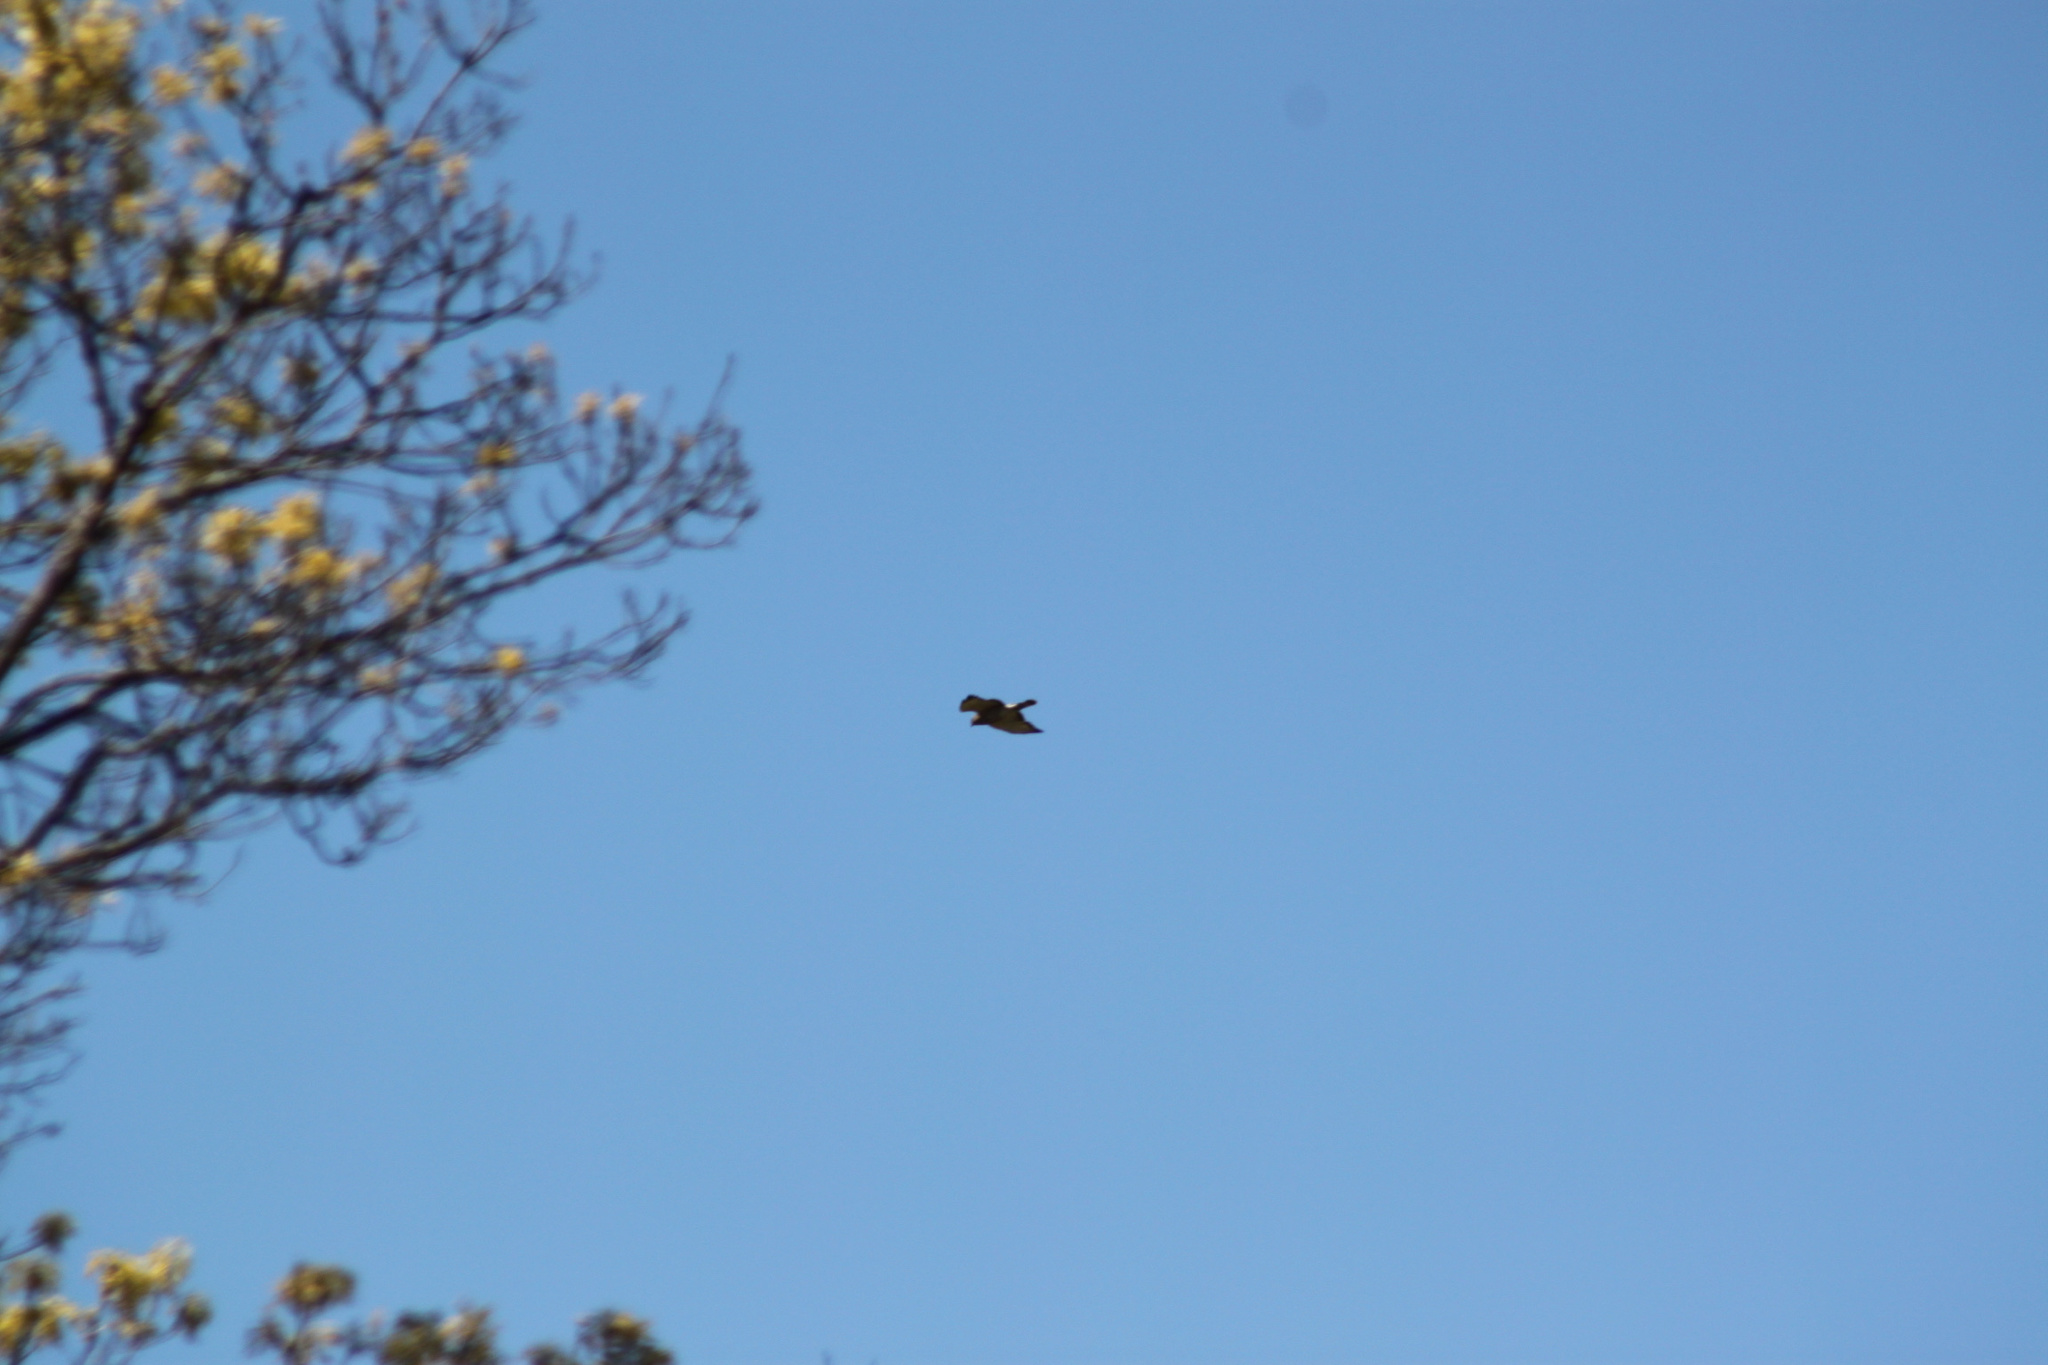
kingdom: Animalia
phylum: Chordata
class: Aves
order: Accipitriformes
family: Accipitridae
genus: Buteo
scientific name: Buteo platypterus
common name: Broad-winged hawk
